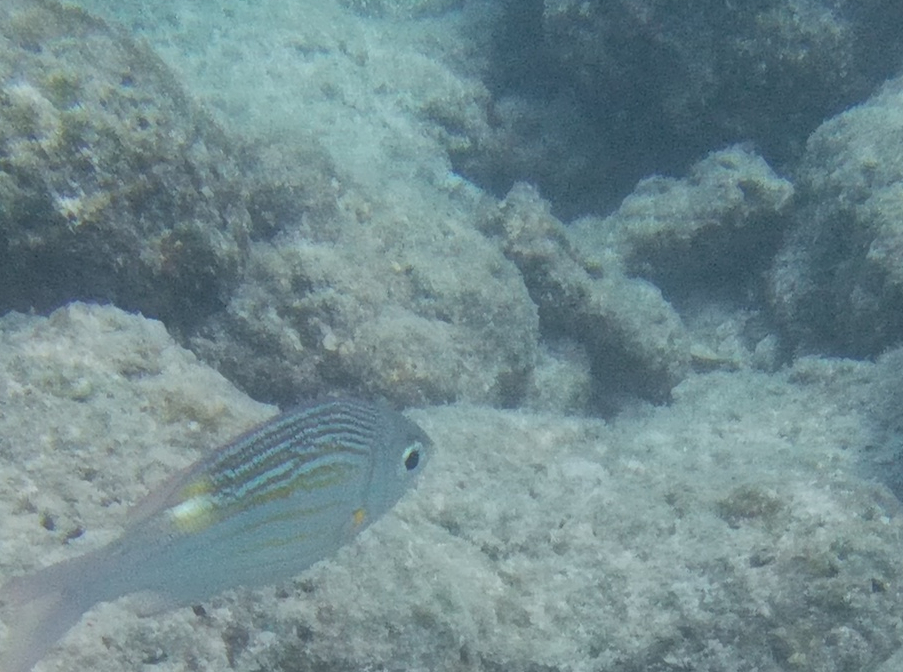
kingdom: Animalia
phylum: Chordata
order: Perciformes
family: Lethrinidae
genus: Gnathodentex
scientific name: Gnathodentex aureolineatus
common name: Gold-lined sea bream
